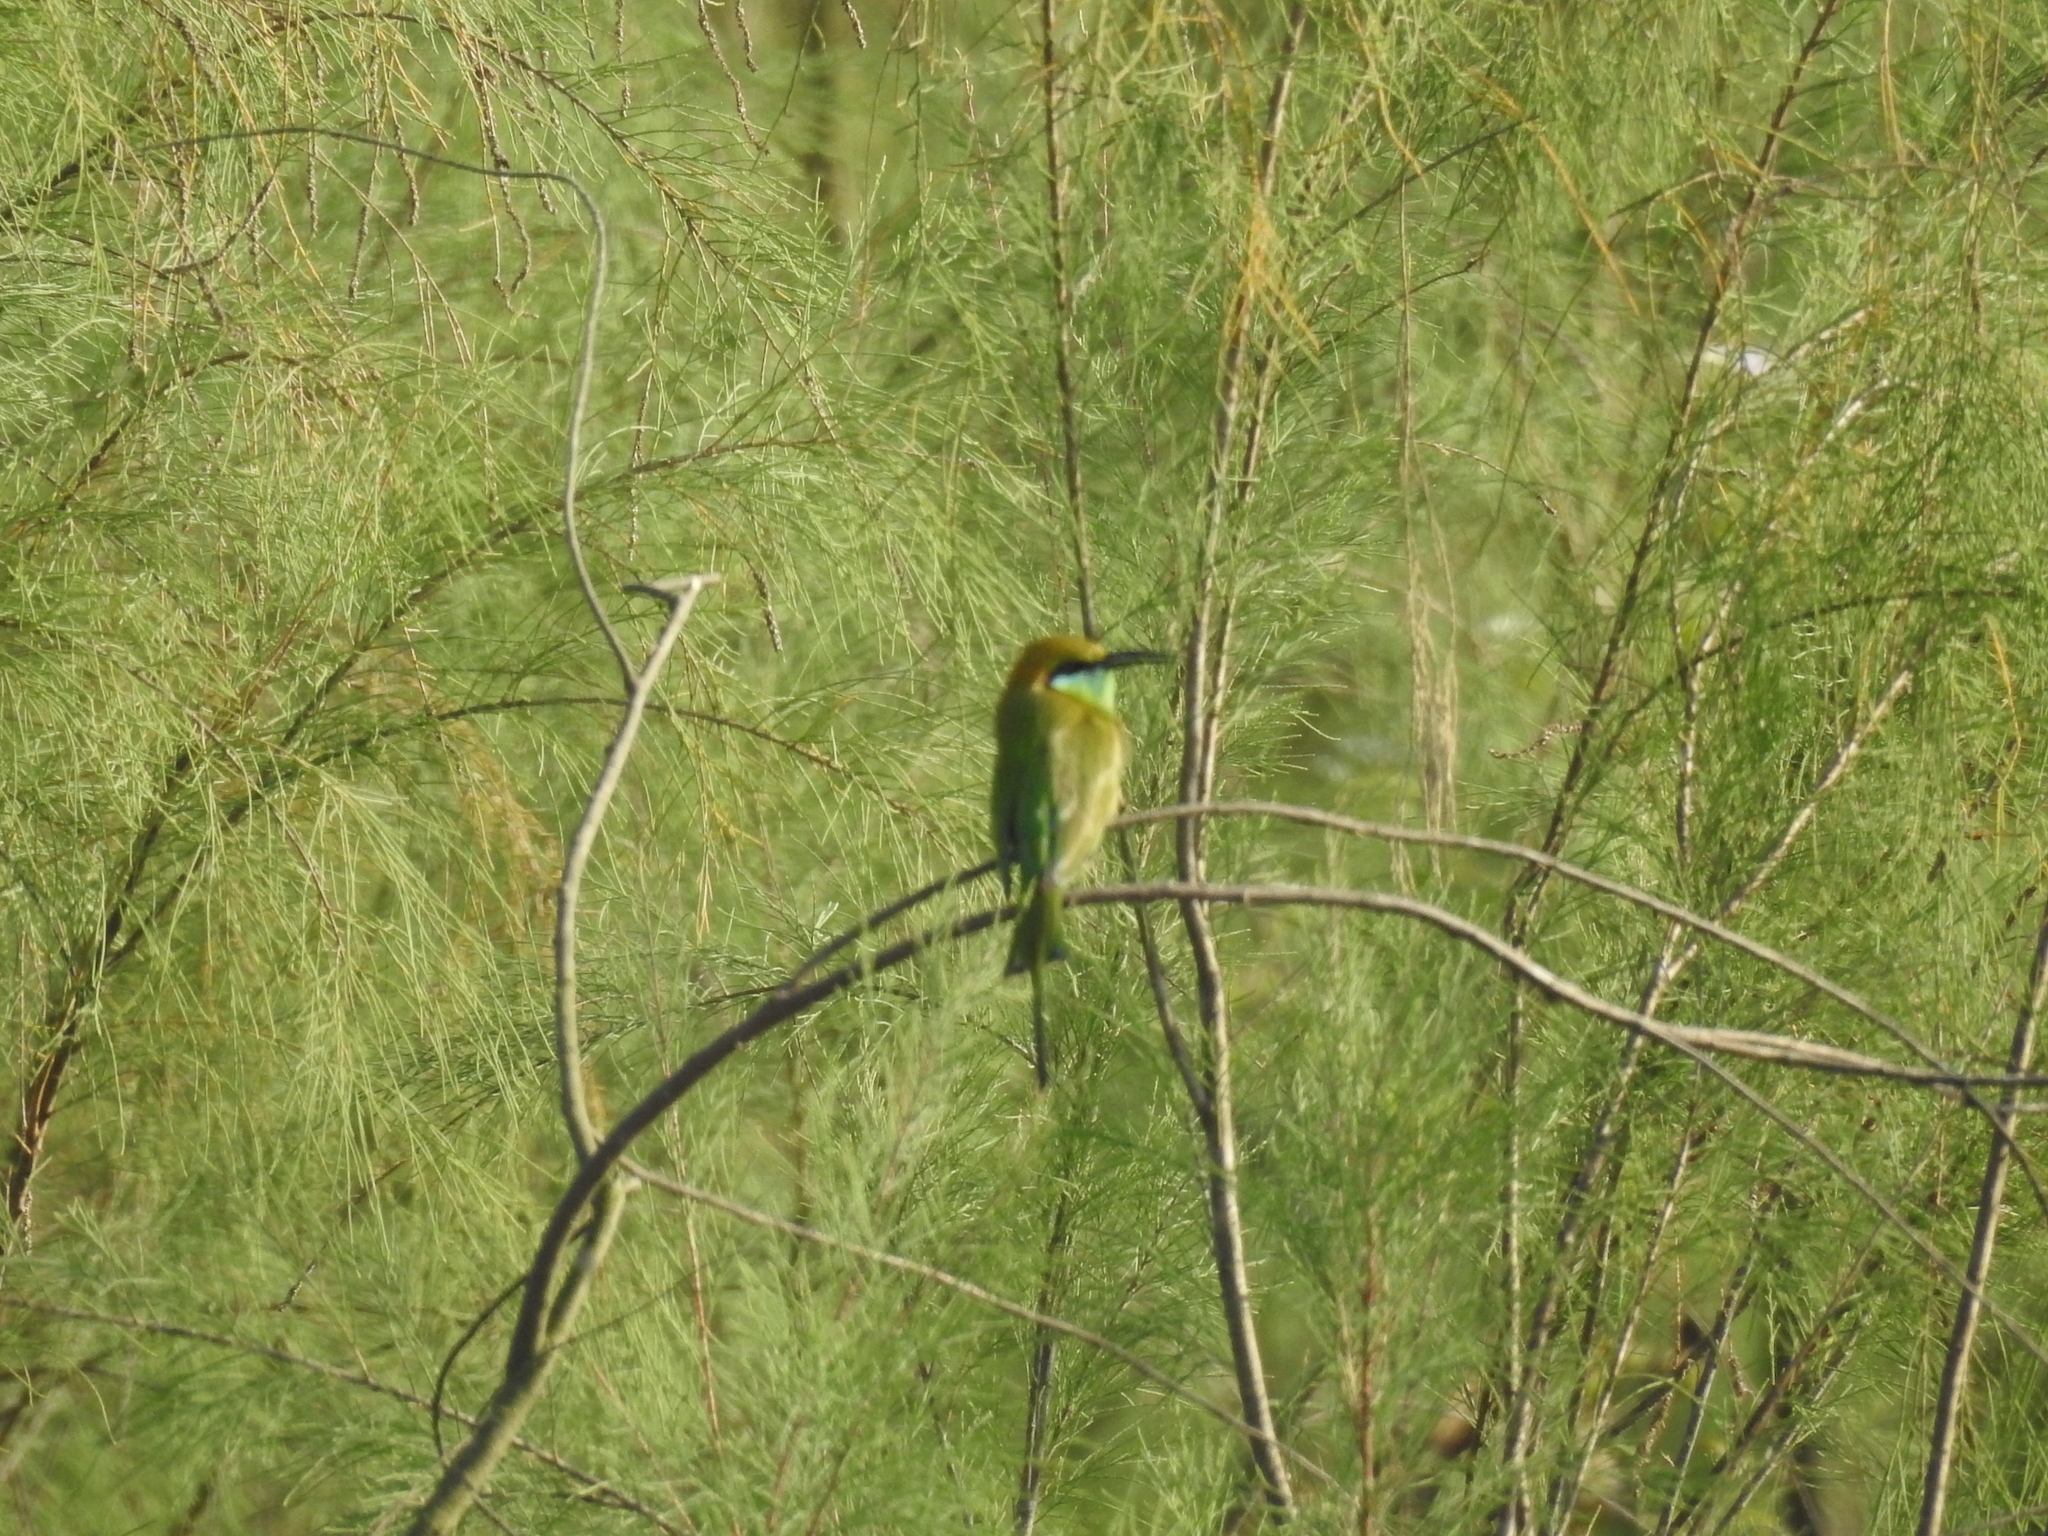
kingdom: Animalia
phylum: Chordata
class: Aves
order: Coraciiformes
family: Meropidae
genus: Merops
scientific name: Merops orientalis
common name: Green bee-eater
